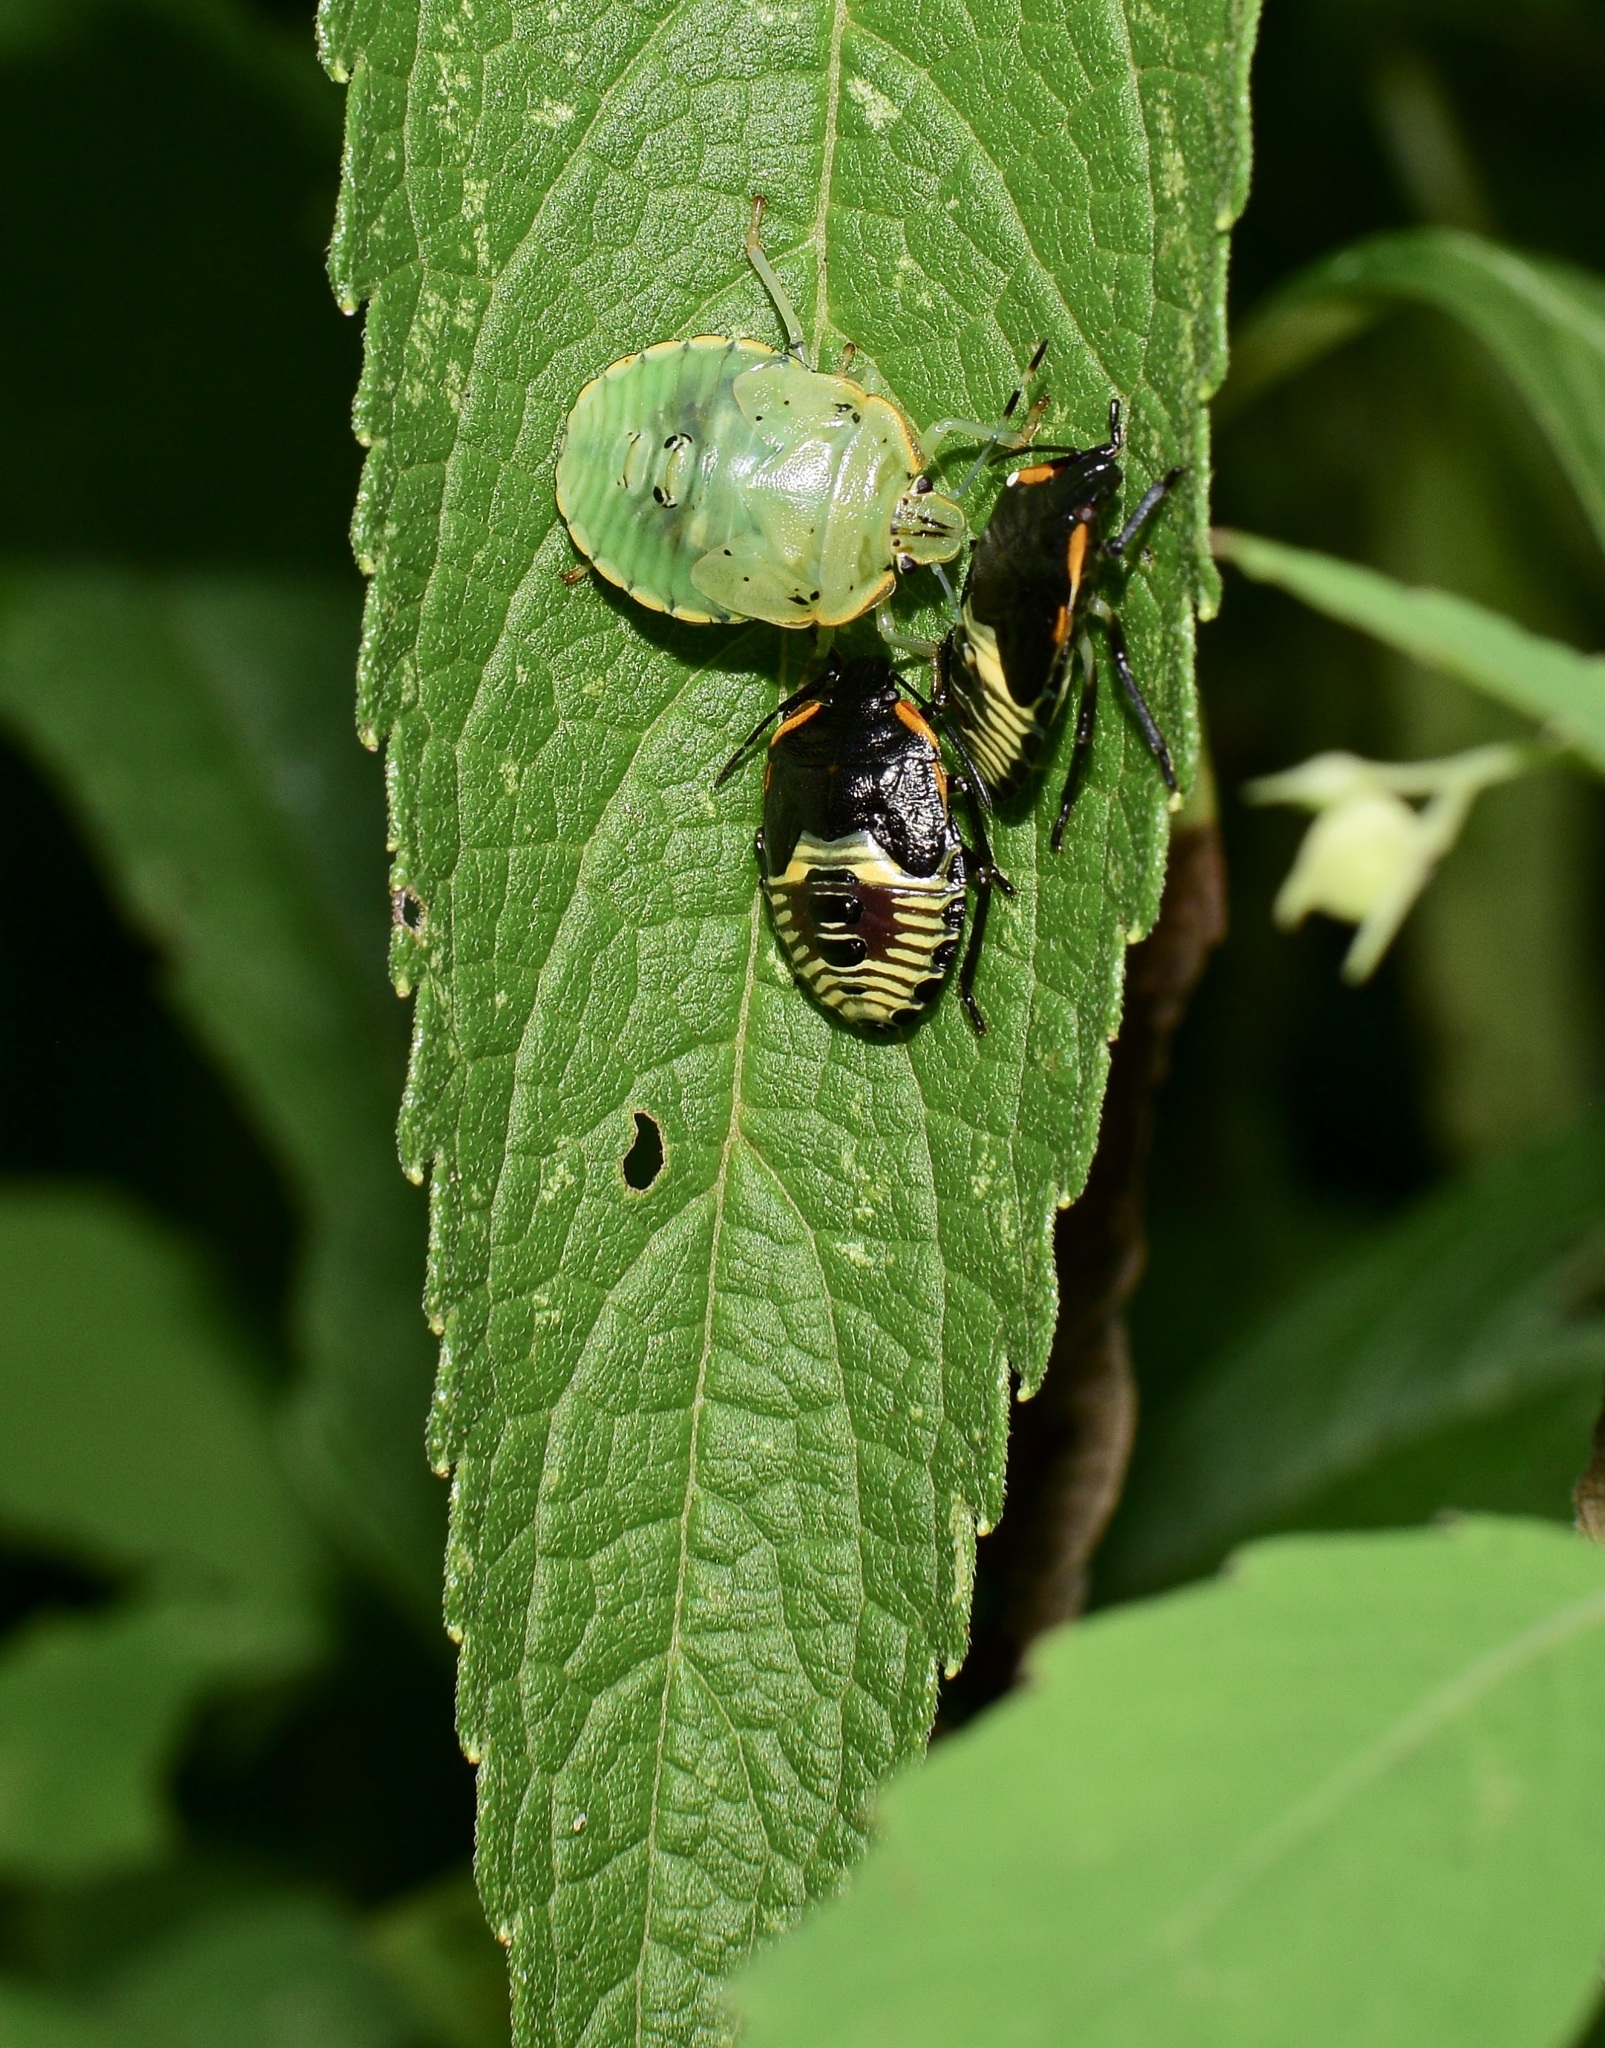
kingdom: Animalia
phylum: Arthropoda
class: Insecta
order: Hemiptera
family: Pentatomidae
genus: Chinavia
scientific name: Chinavia hilaris
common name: Green stink bug
